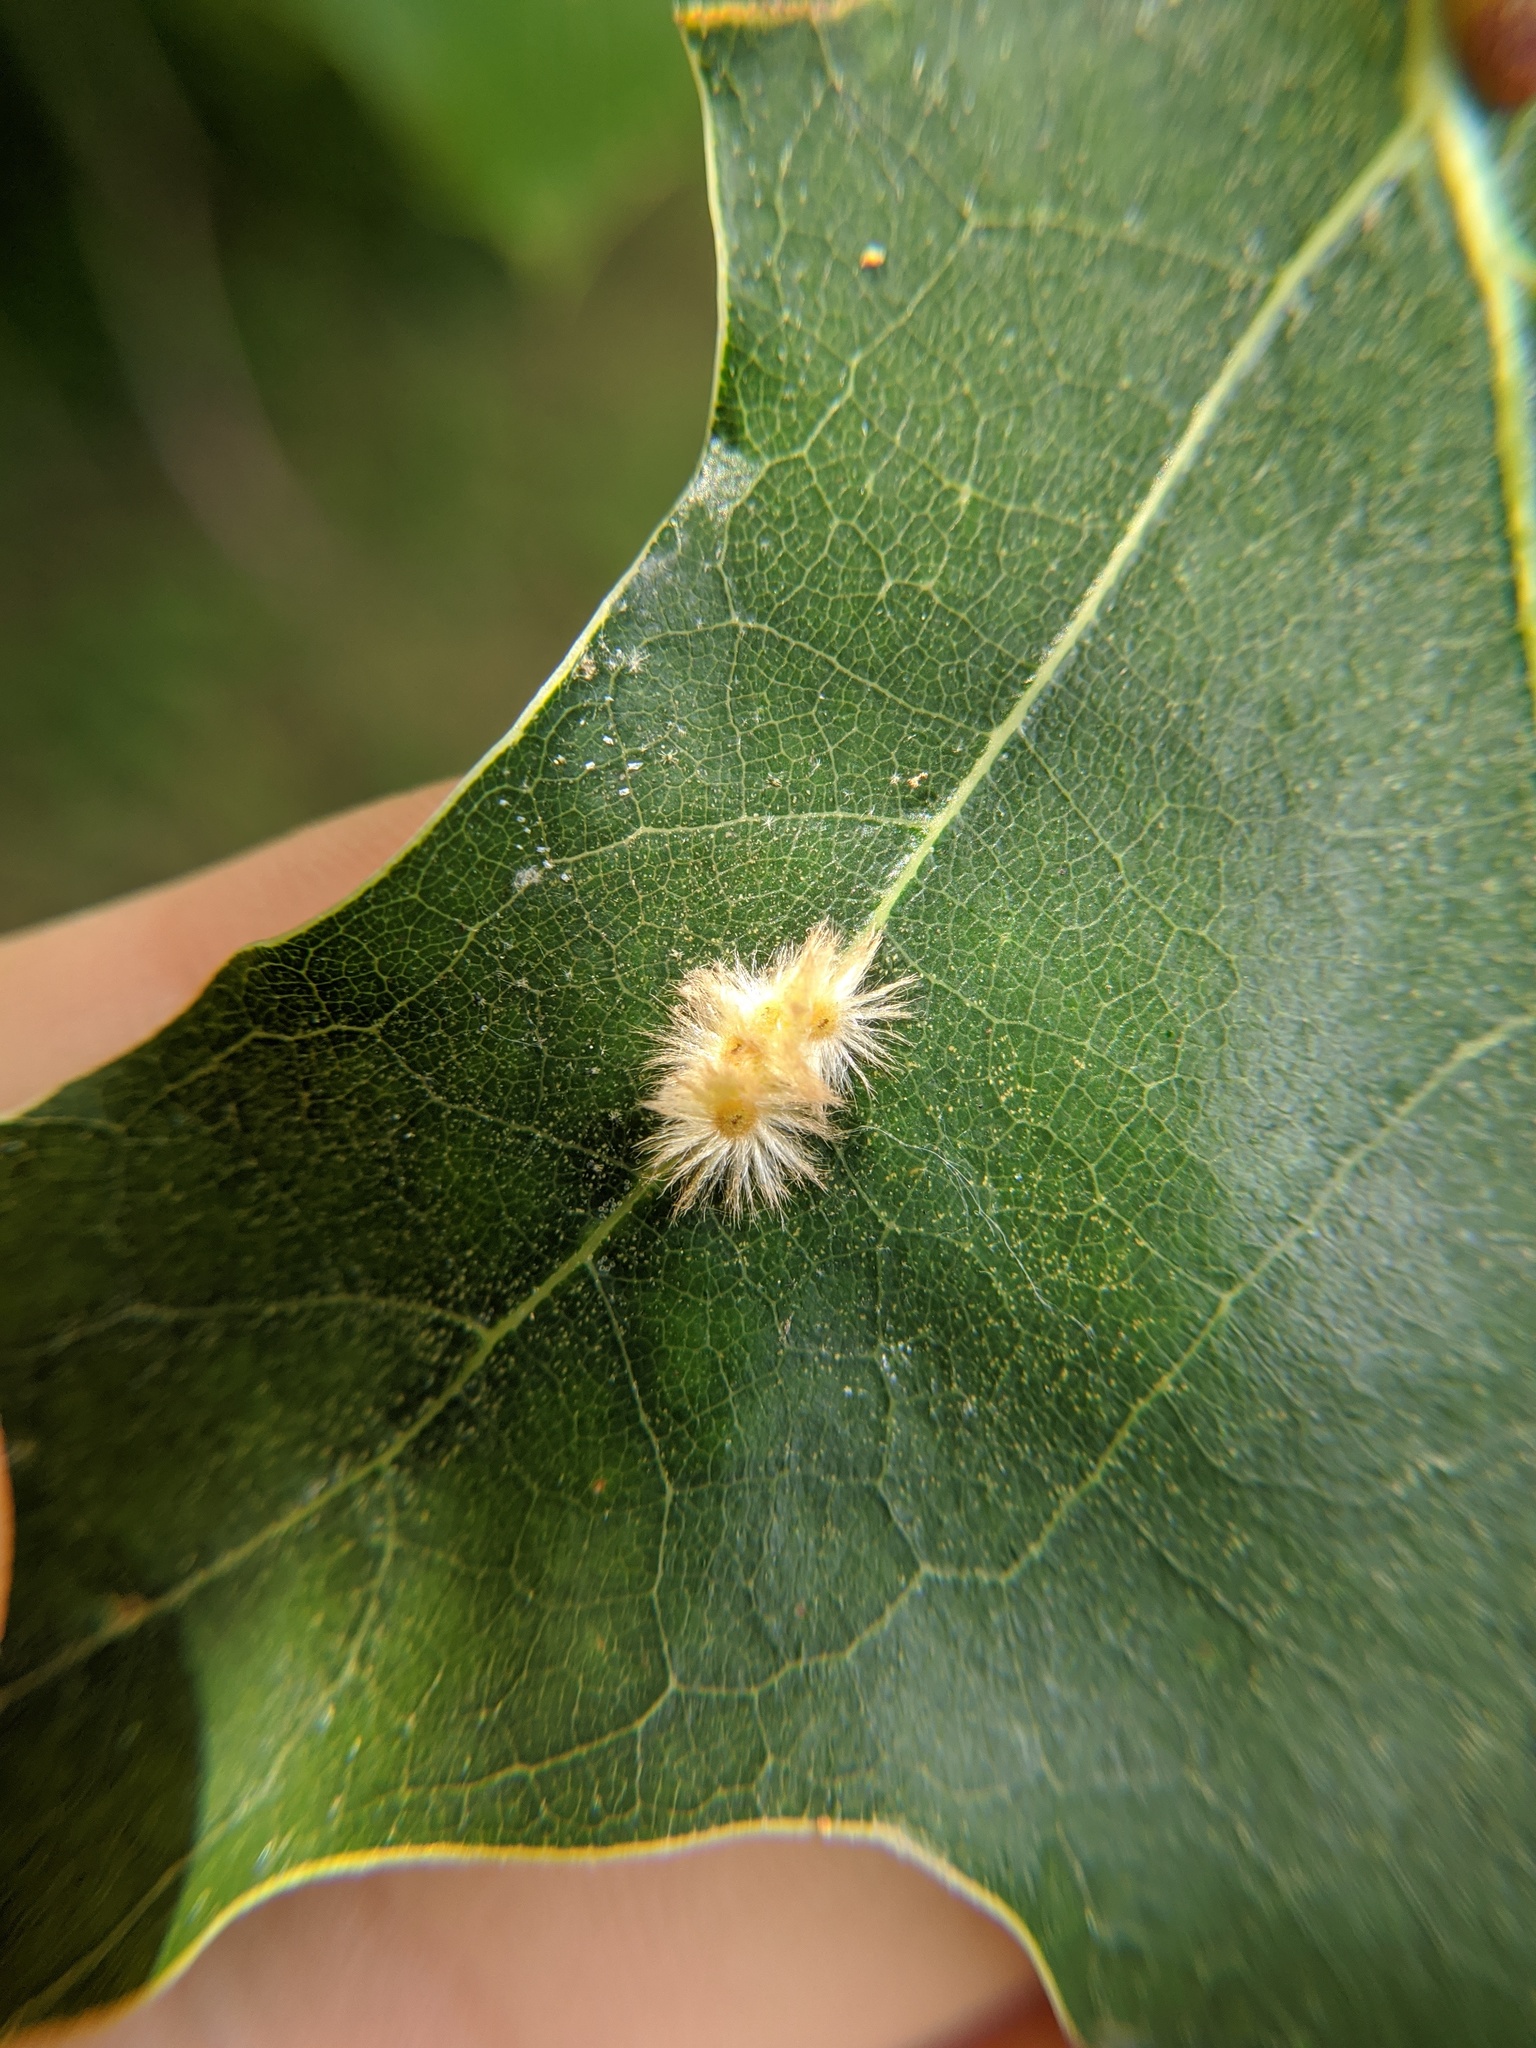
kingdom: Animalia
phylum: Arthropoda
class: Insecta
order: Hymenoptera
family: Cynipidae
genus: Callirhytis
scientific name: Callirhytis
